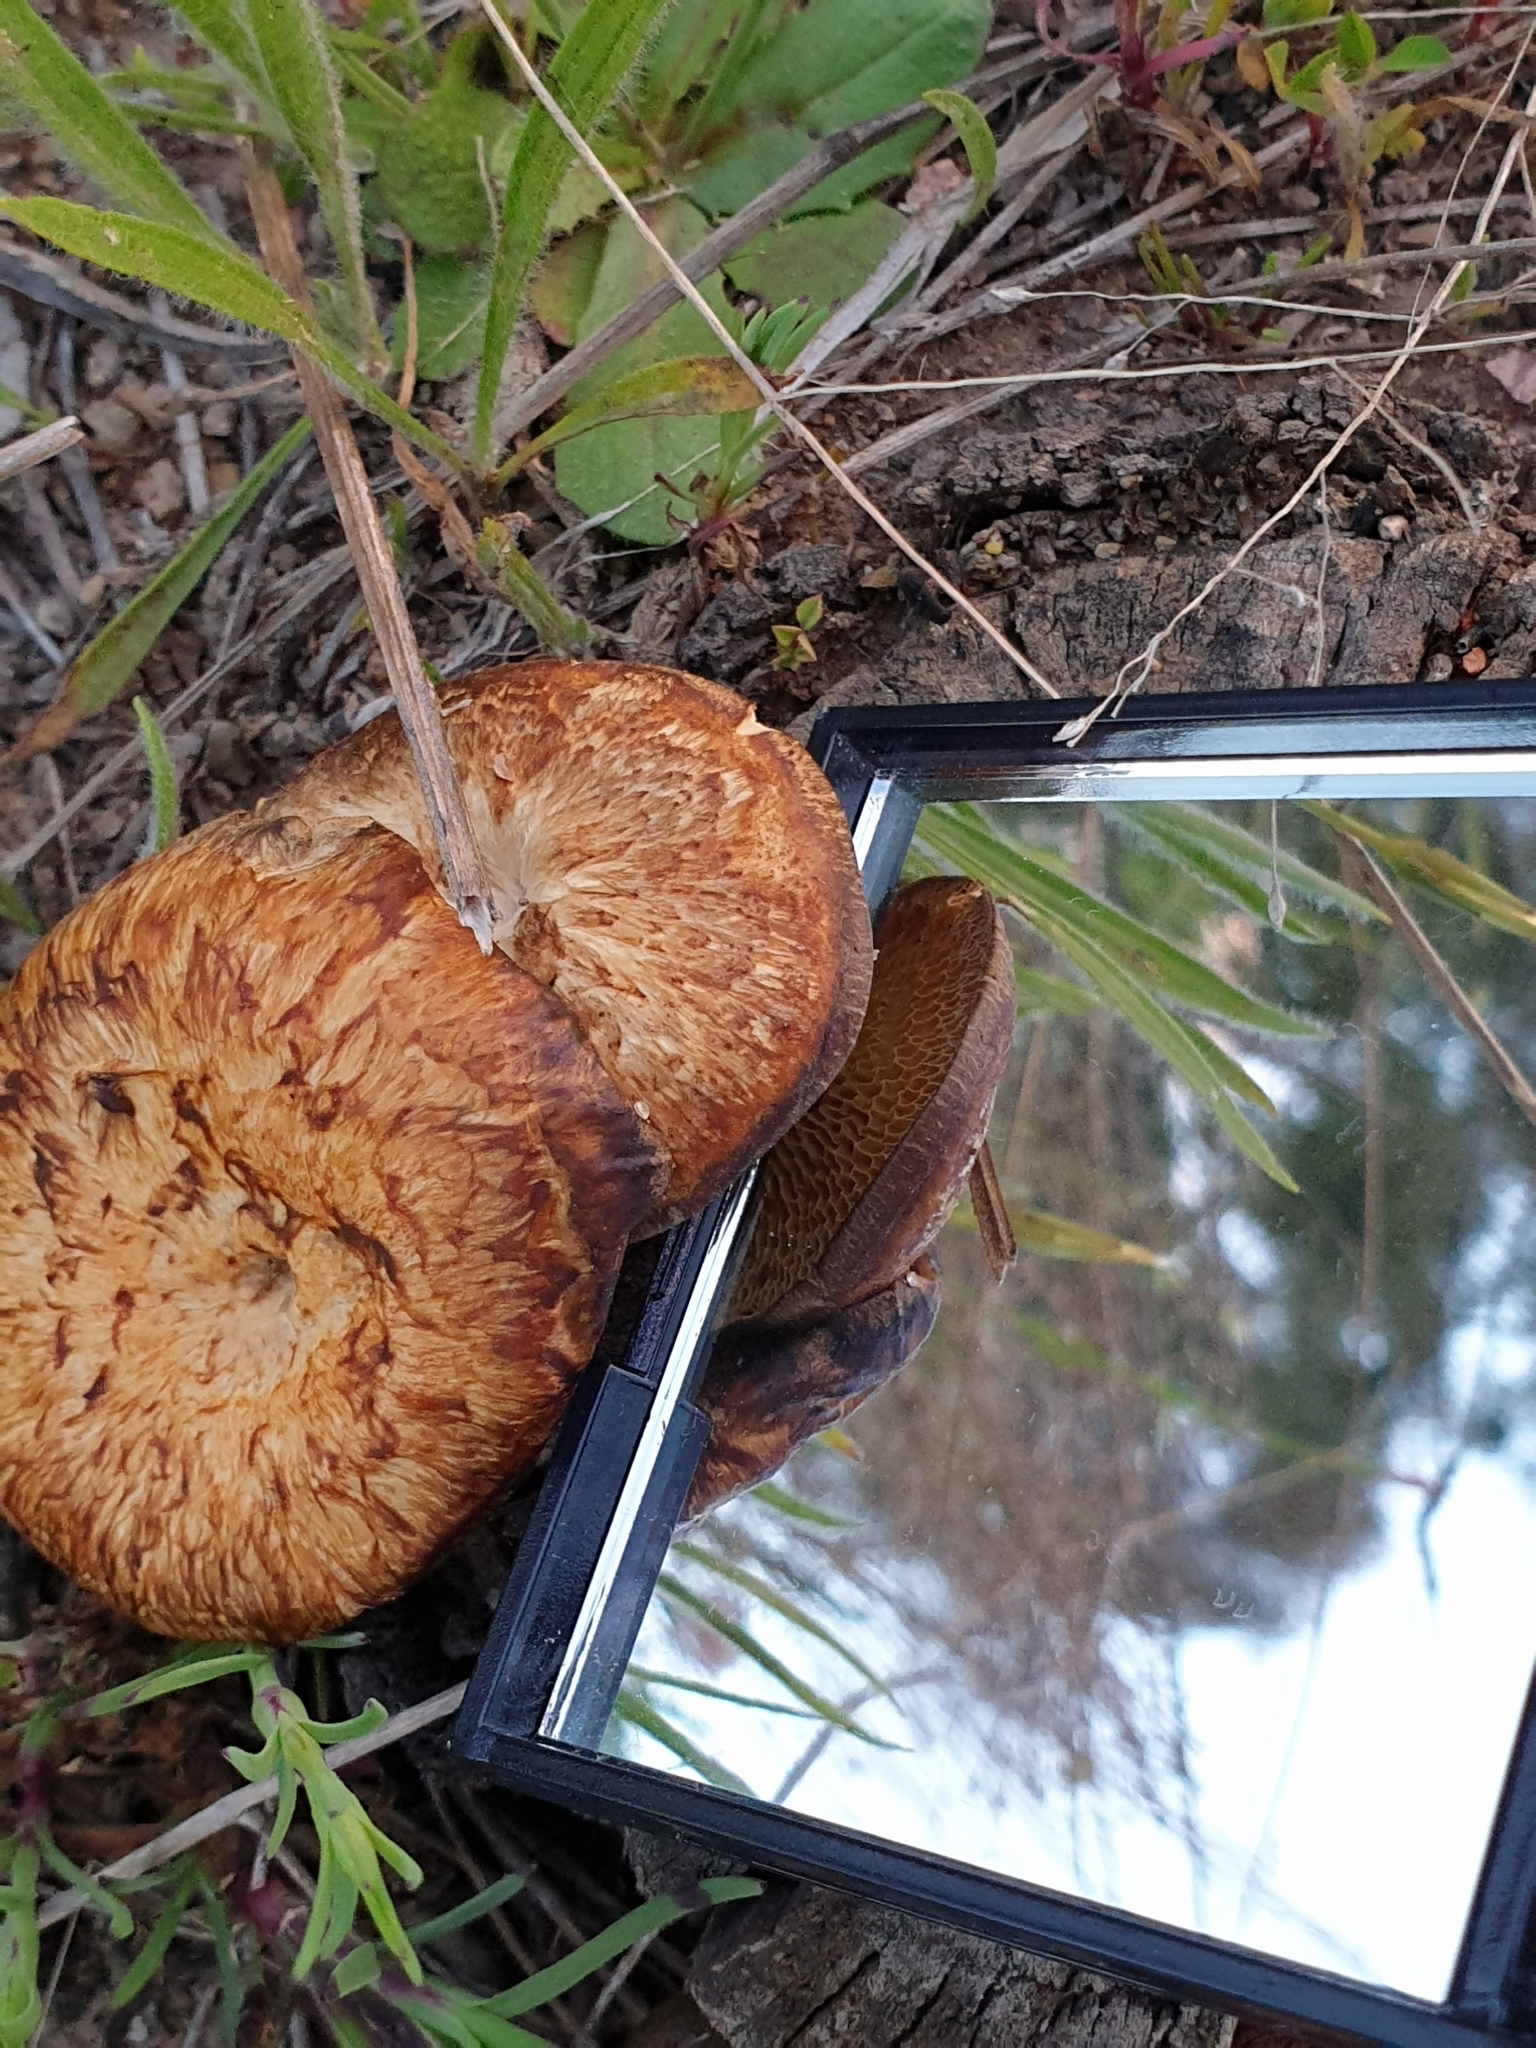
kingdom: Fungi
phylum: Basidiomycota
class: Agaricomycetes
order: Polyporales
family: Polyporaceae
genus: Lentinus
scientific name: Lentinus arcularius
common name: Spring polypore
